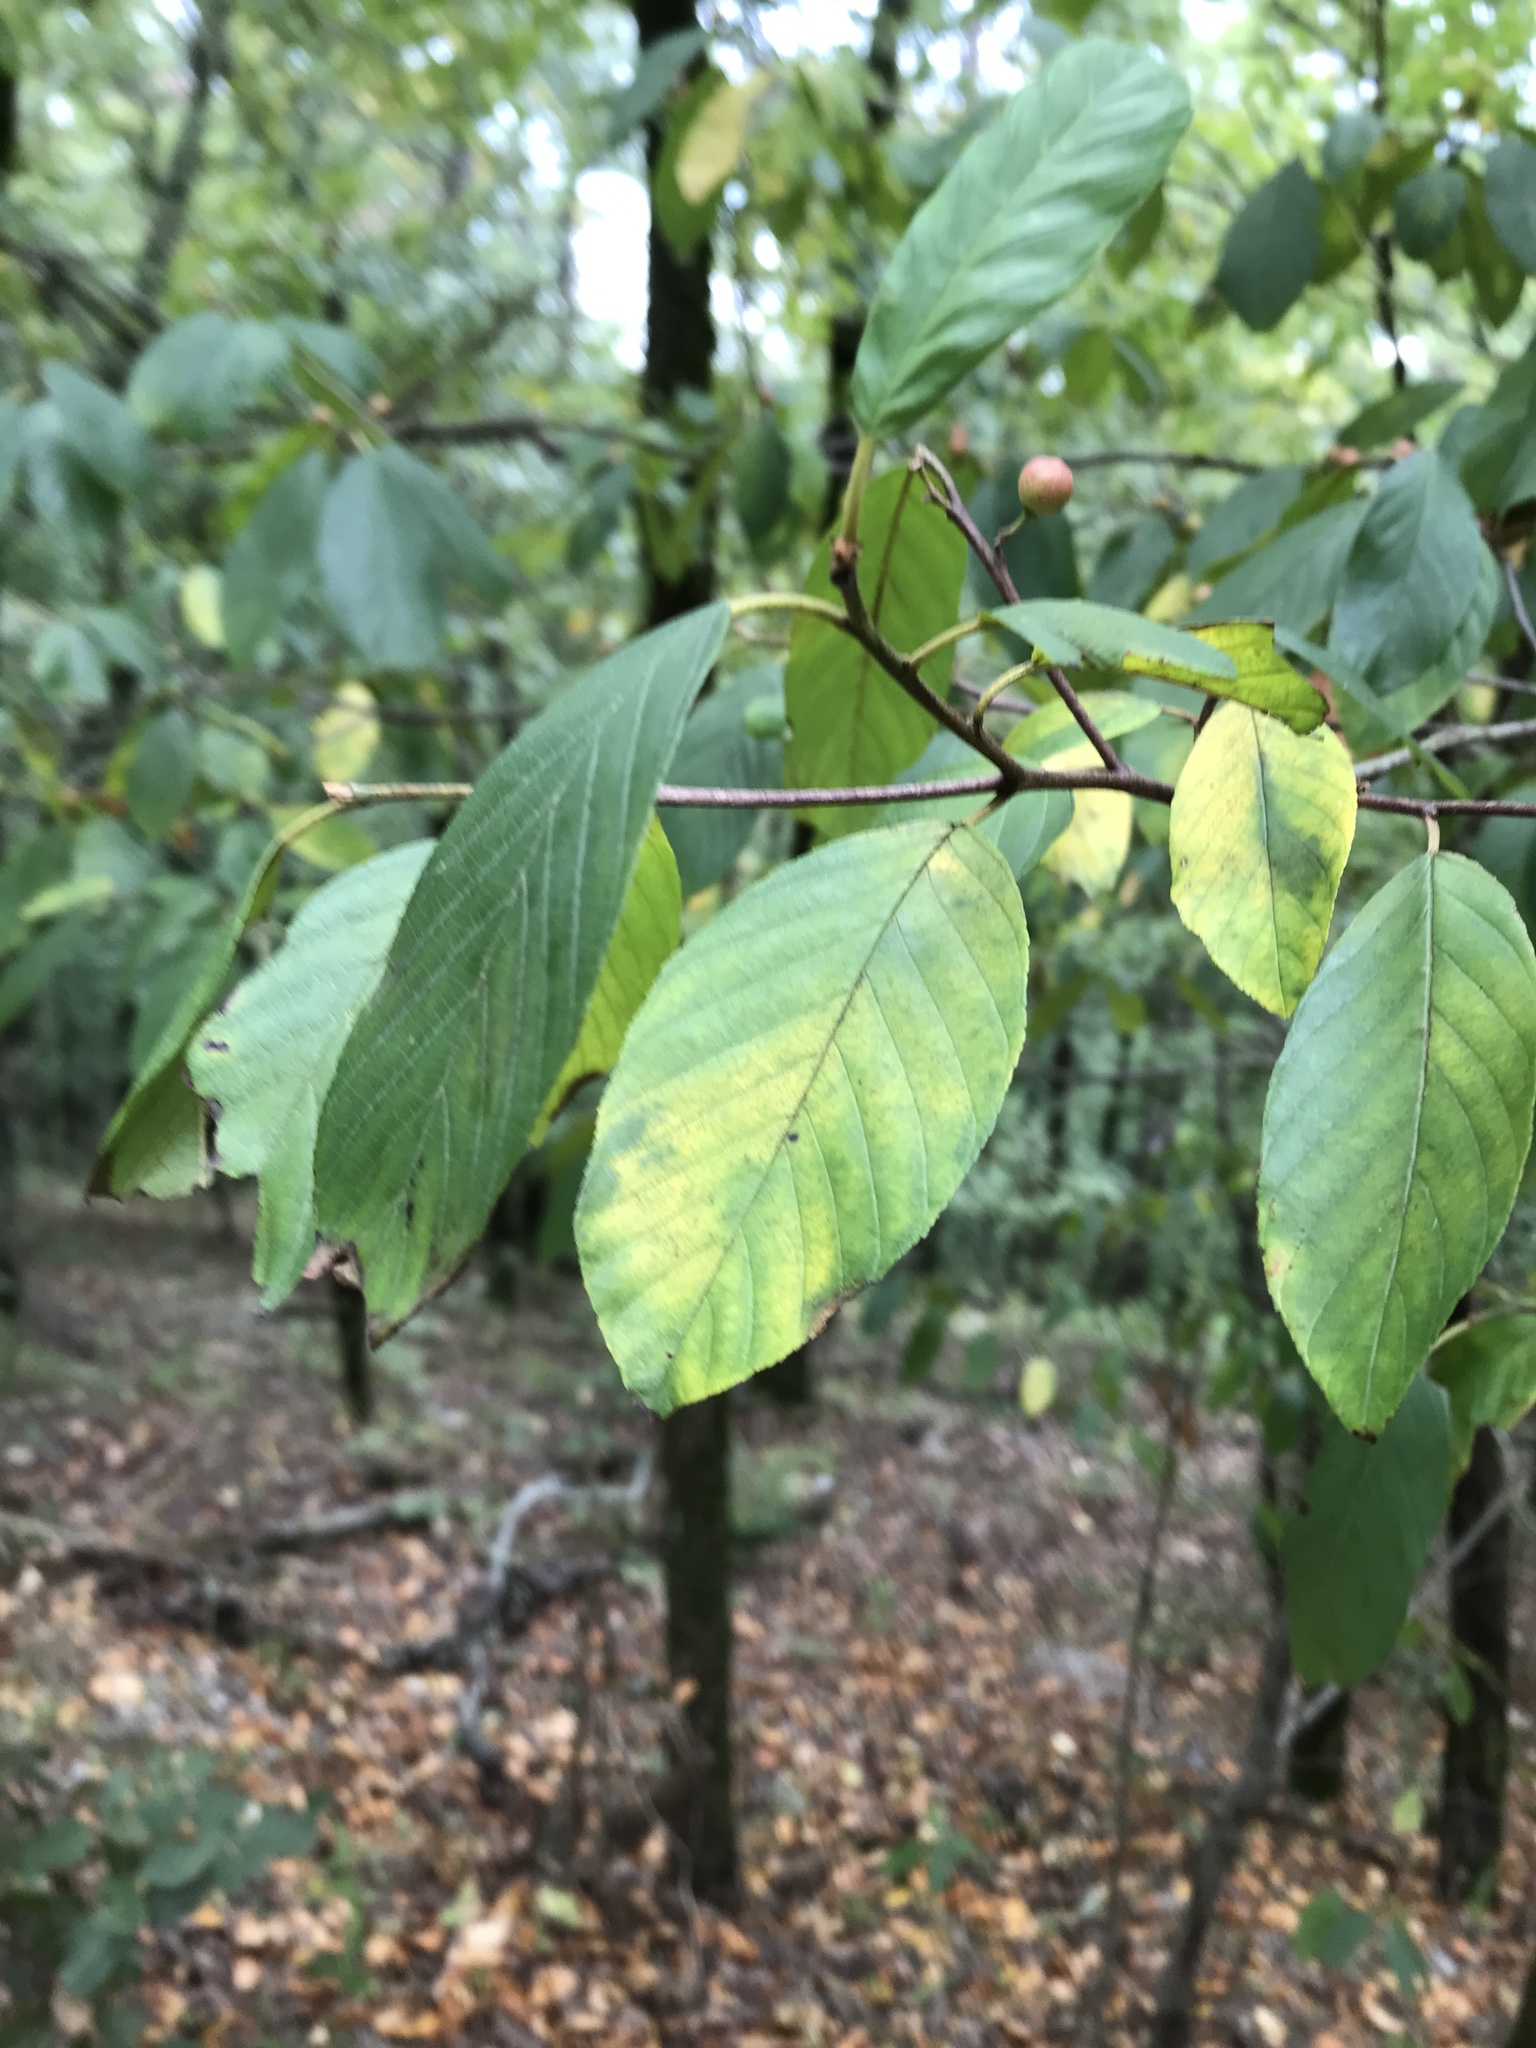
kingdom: Plantae
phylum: Tracheophyta
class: Magnoliopsida
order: Rosales
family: Rhamnaceae
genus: Frangula
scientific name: Frangula caroliniana
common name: Carolina buckthorn
